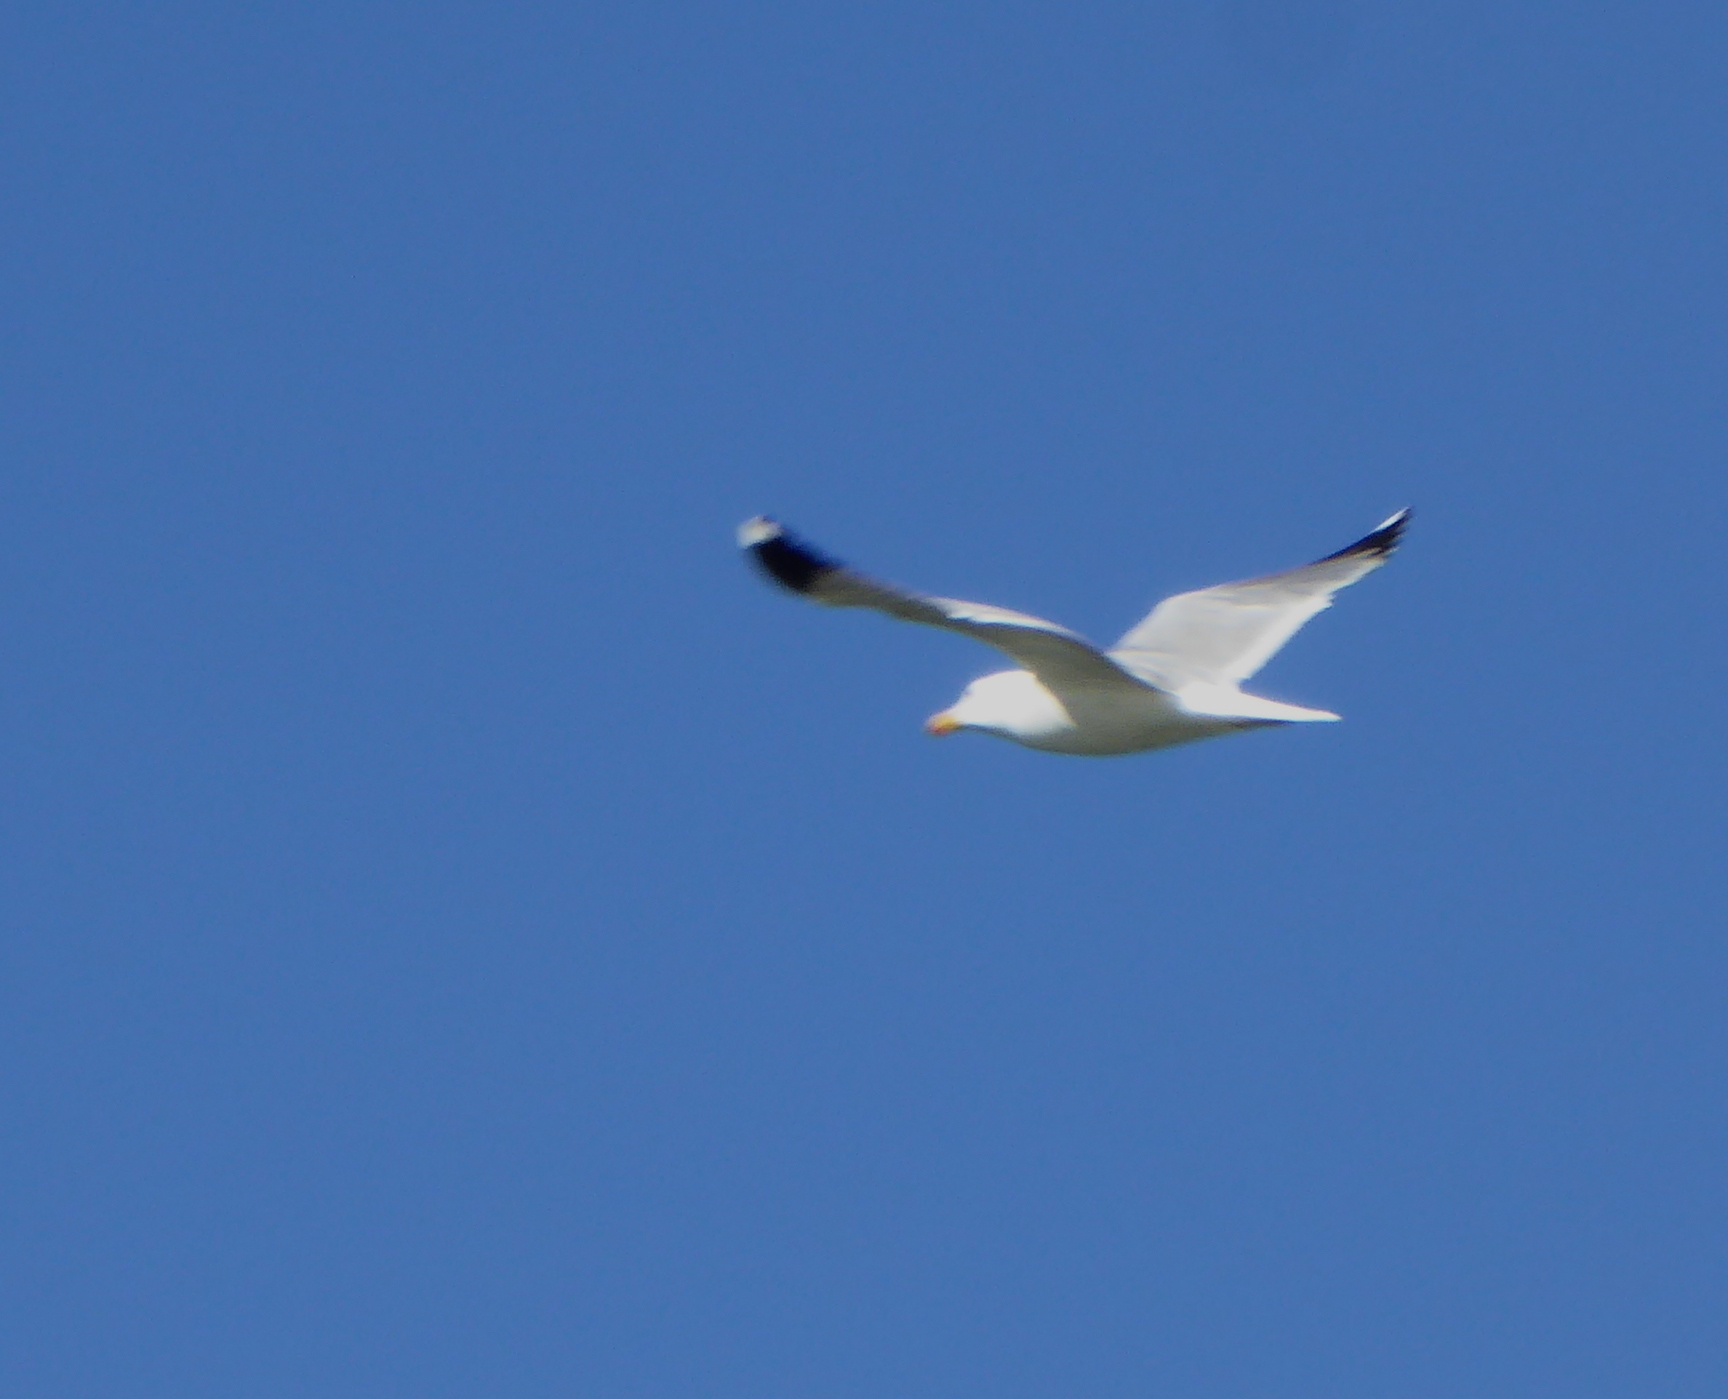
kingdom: Animalia
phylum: Chordata
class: Aves
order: Charadriiformes
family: Laridae
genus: Larus
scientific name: Larus californicus
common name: California gull
